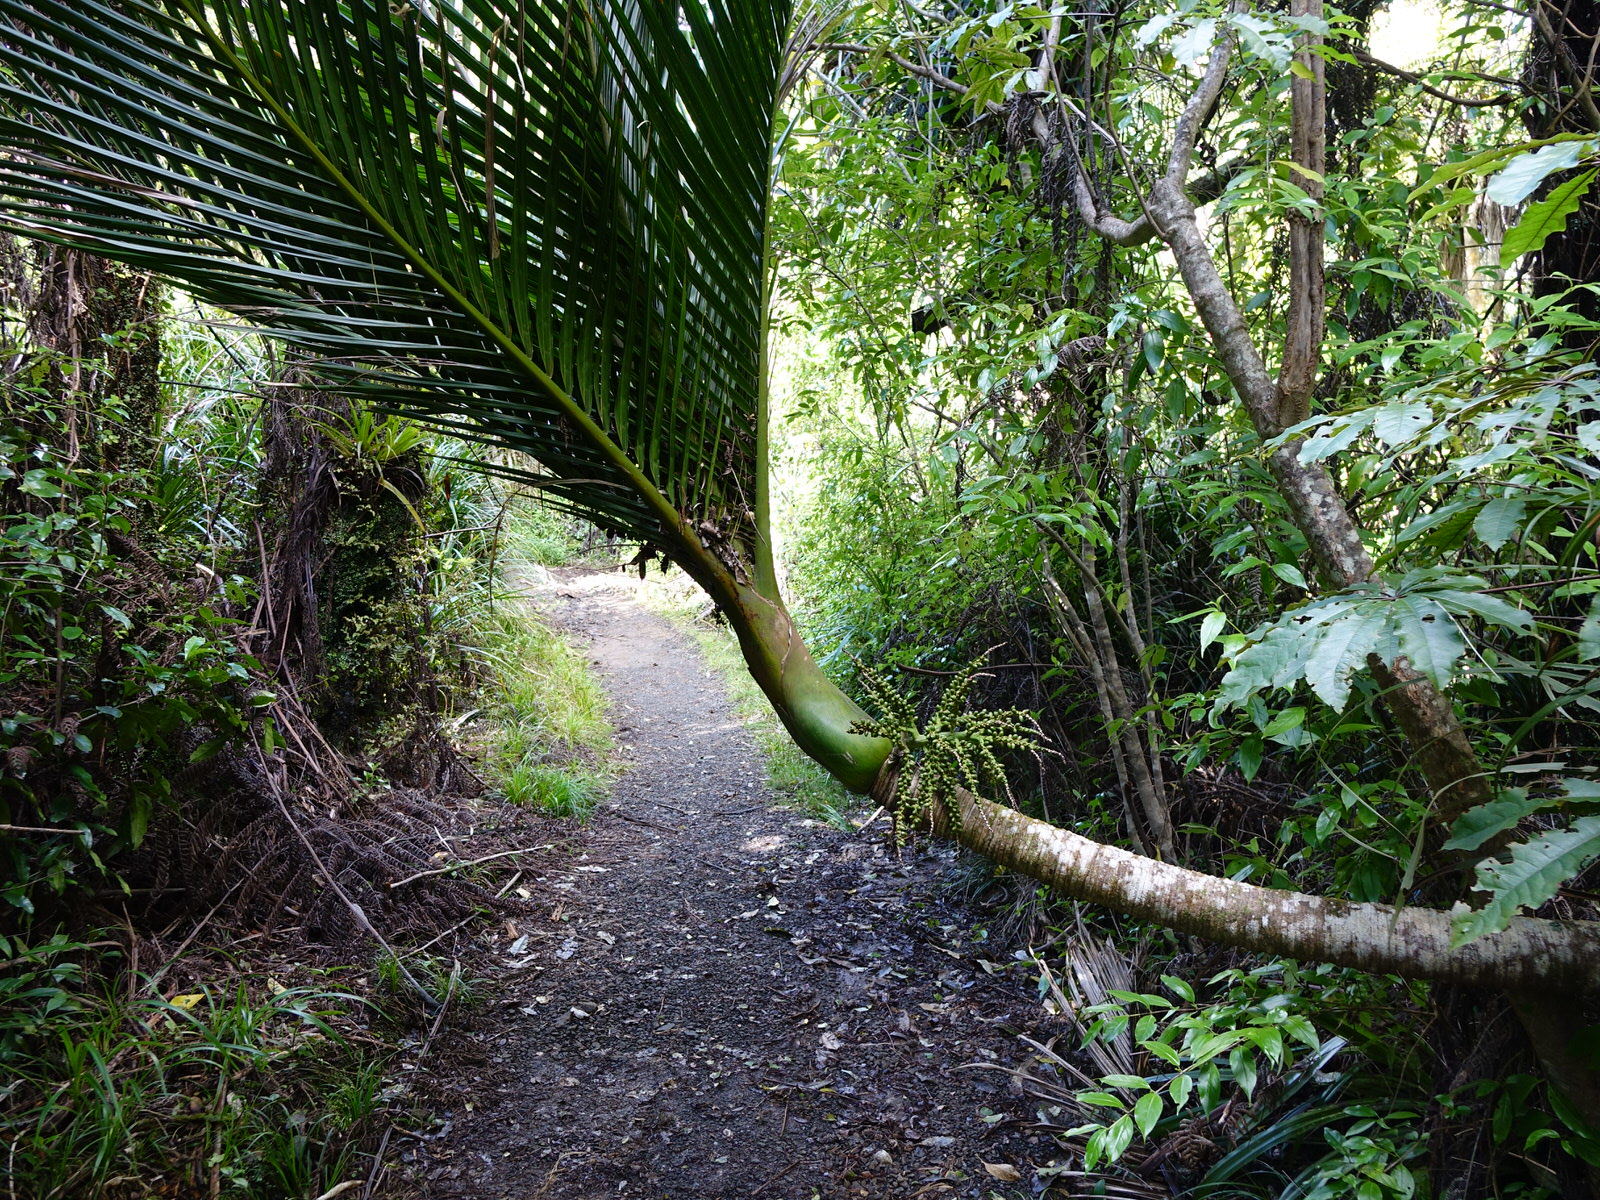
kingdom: Plantae
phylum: Tracheophyta
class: Liliopsida
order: Arecales
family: Arecaceae
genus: Rhopalostylis
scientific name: Rhopalostylis sapida
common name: Feather-duster palm
